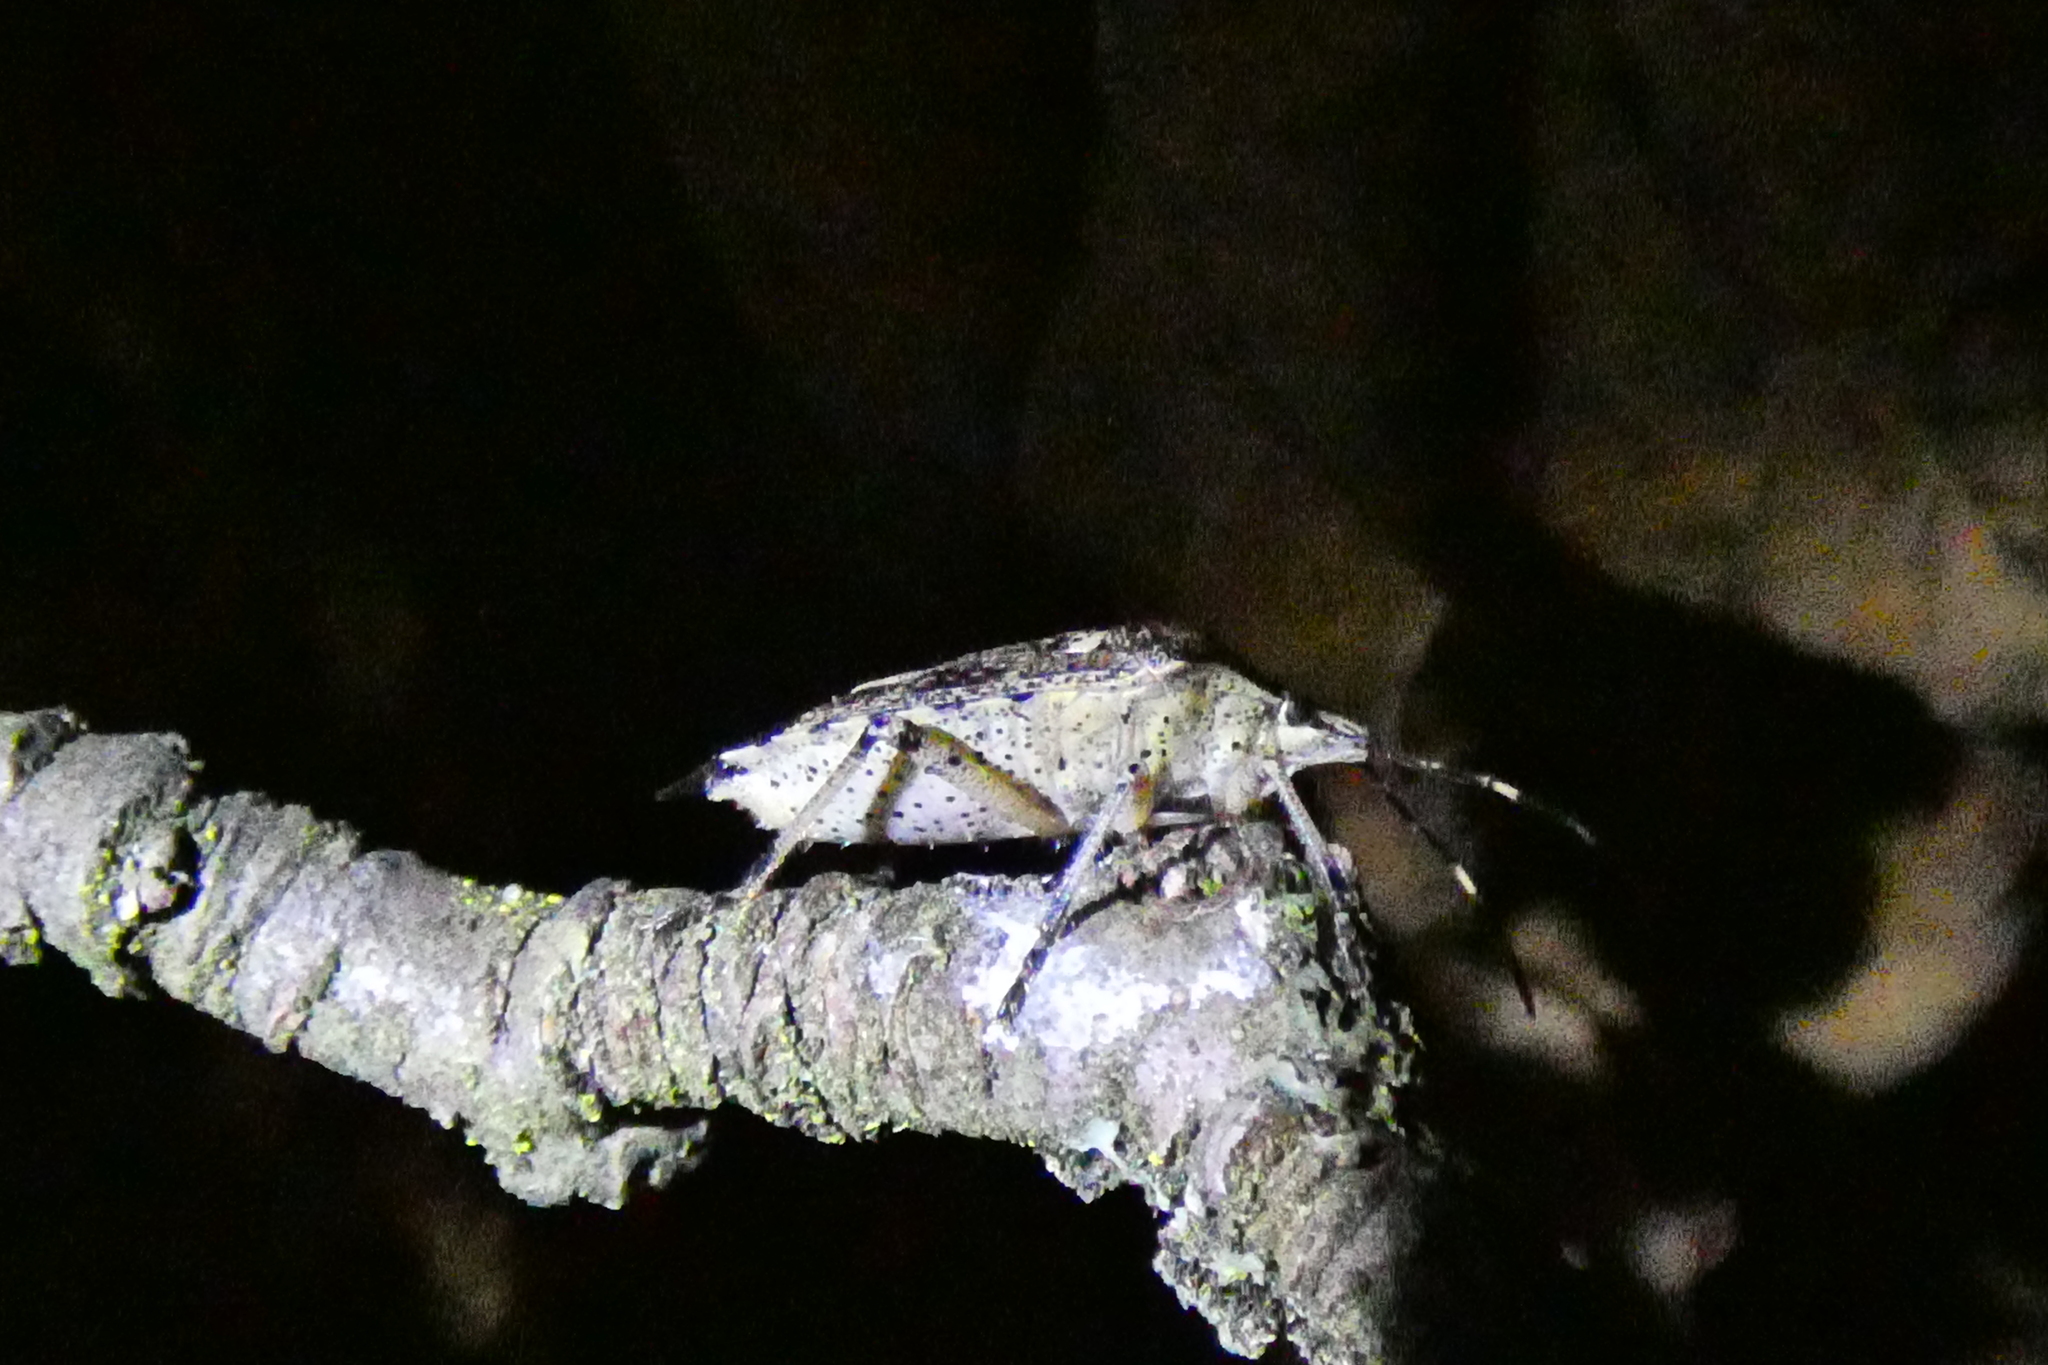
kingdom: Animalia
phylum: Arthropoda
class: Insecta
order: Hemiptera
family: Pentatomidae
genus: Rhaphigaster
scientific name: Rhaphigaster nebulosa
